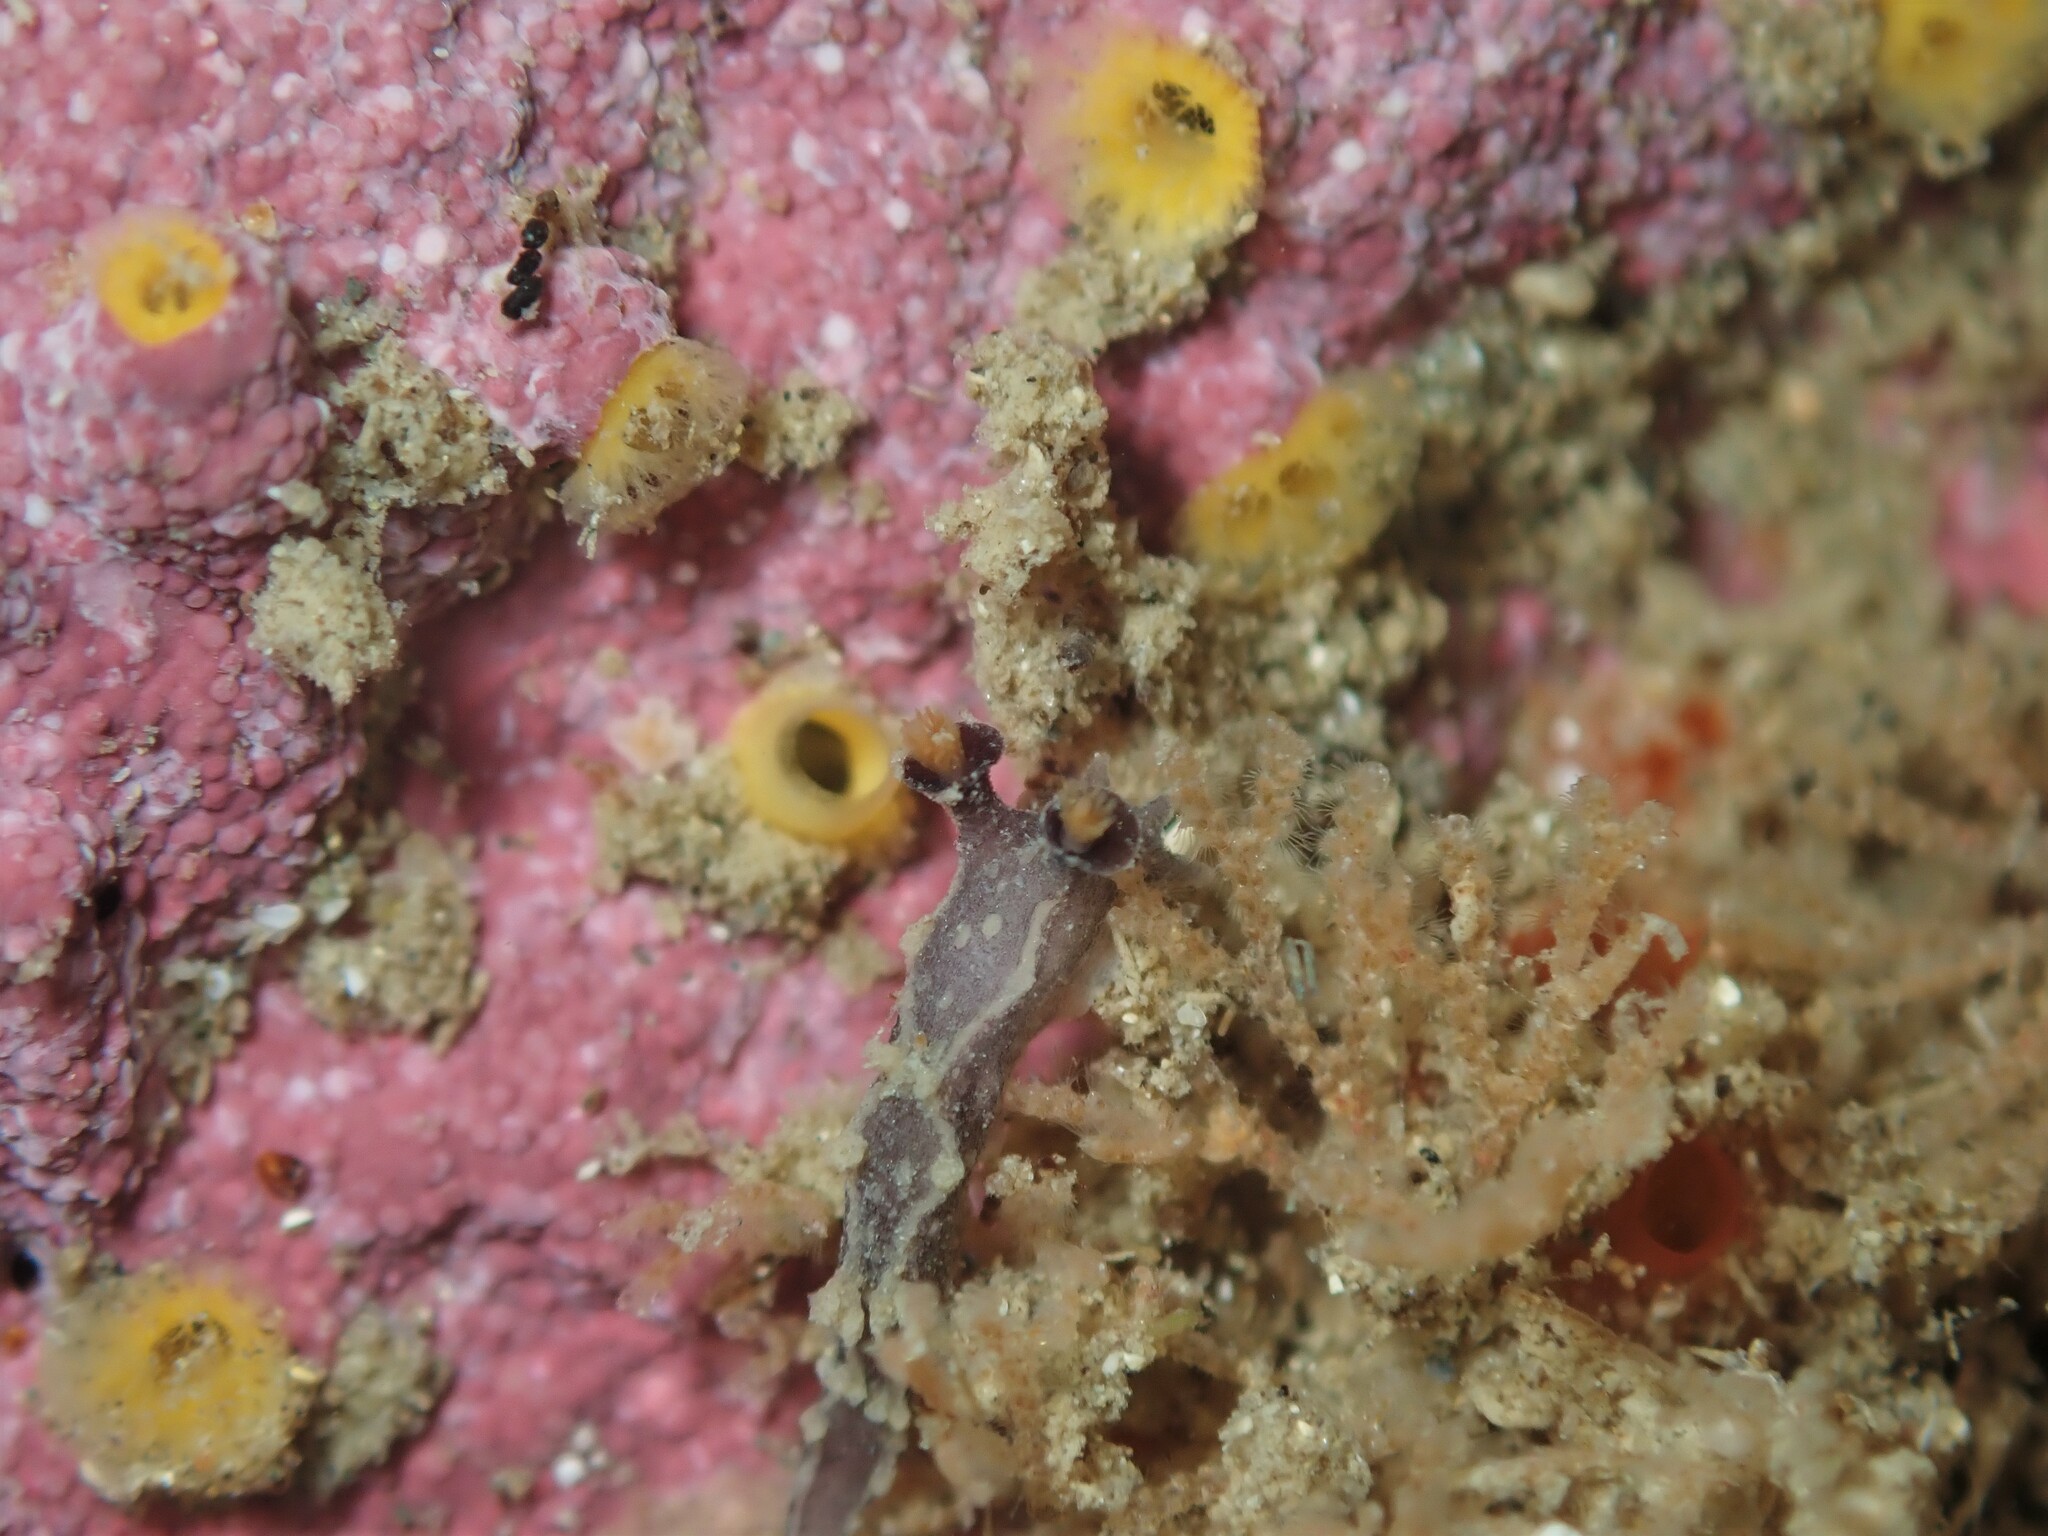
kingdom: Animalia
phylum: Mollusca
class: Gastropoda
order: Nudibranchia
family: Tritoniidae
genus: Tritonia
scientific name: Tritonia flemingi
